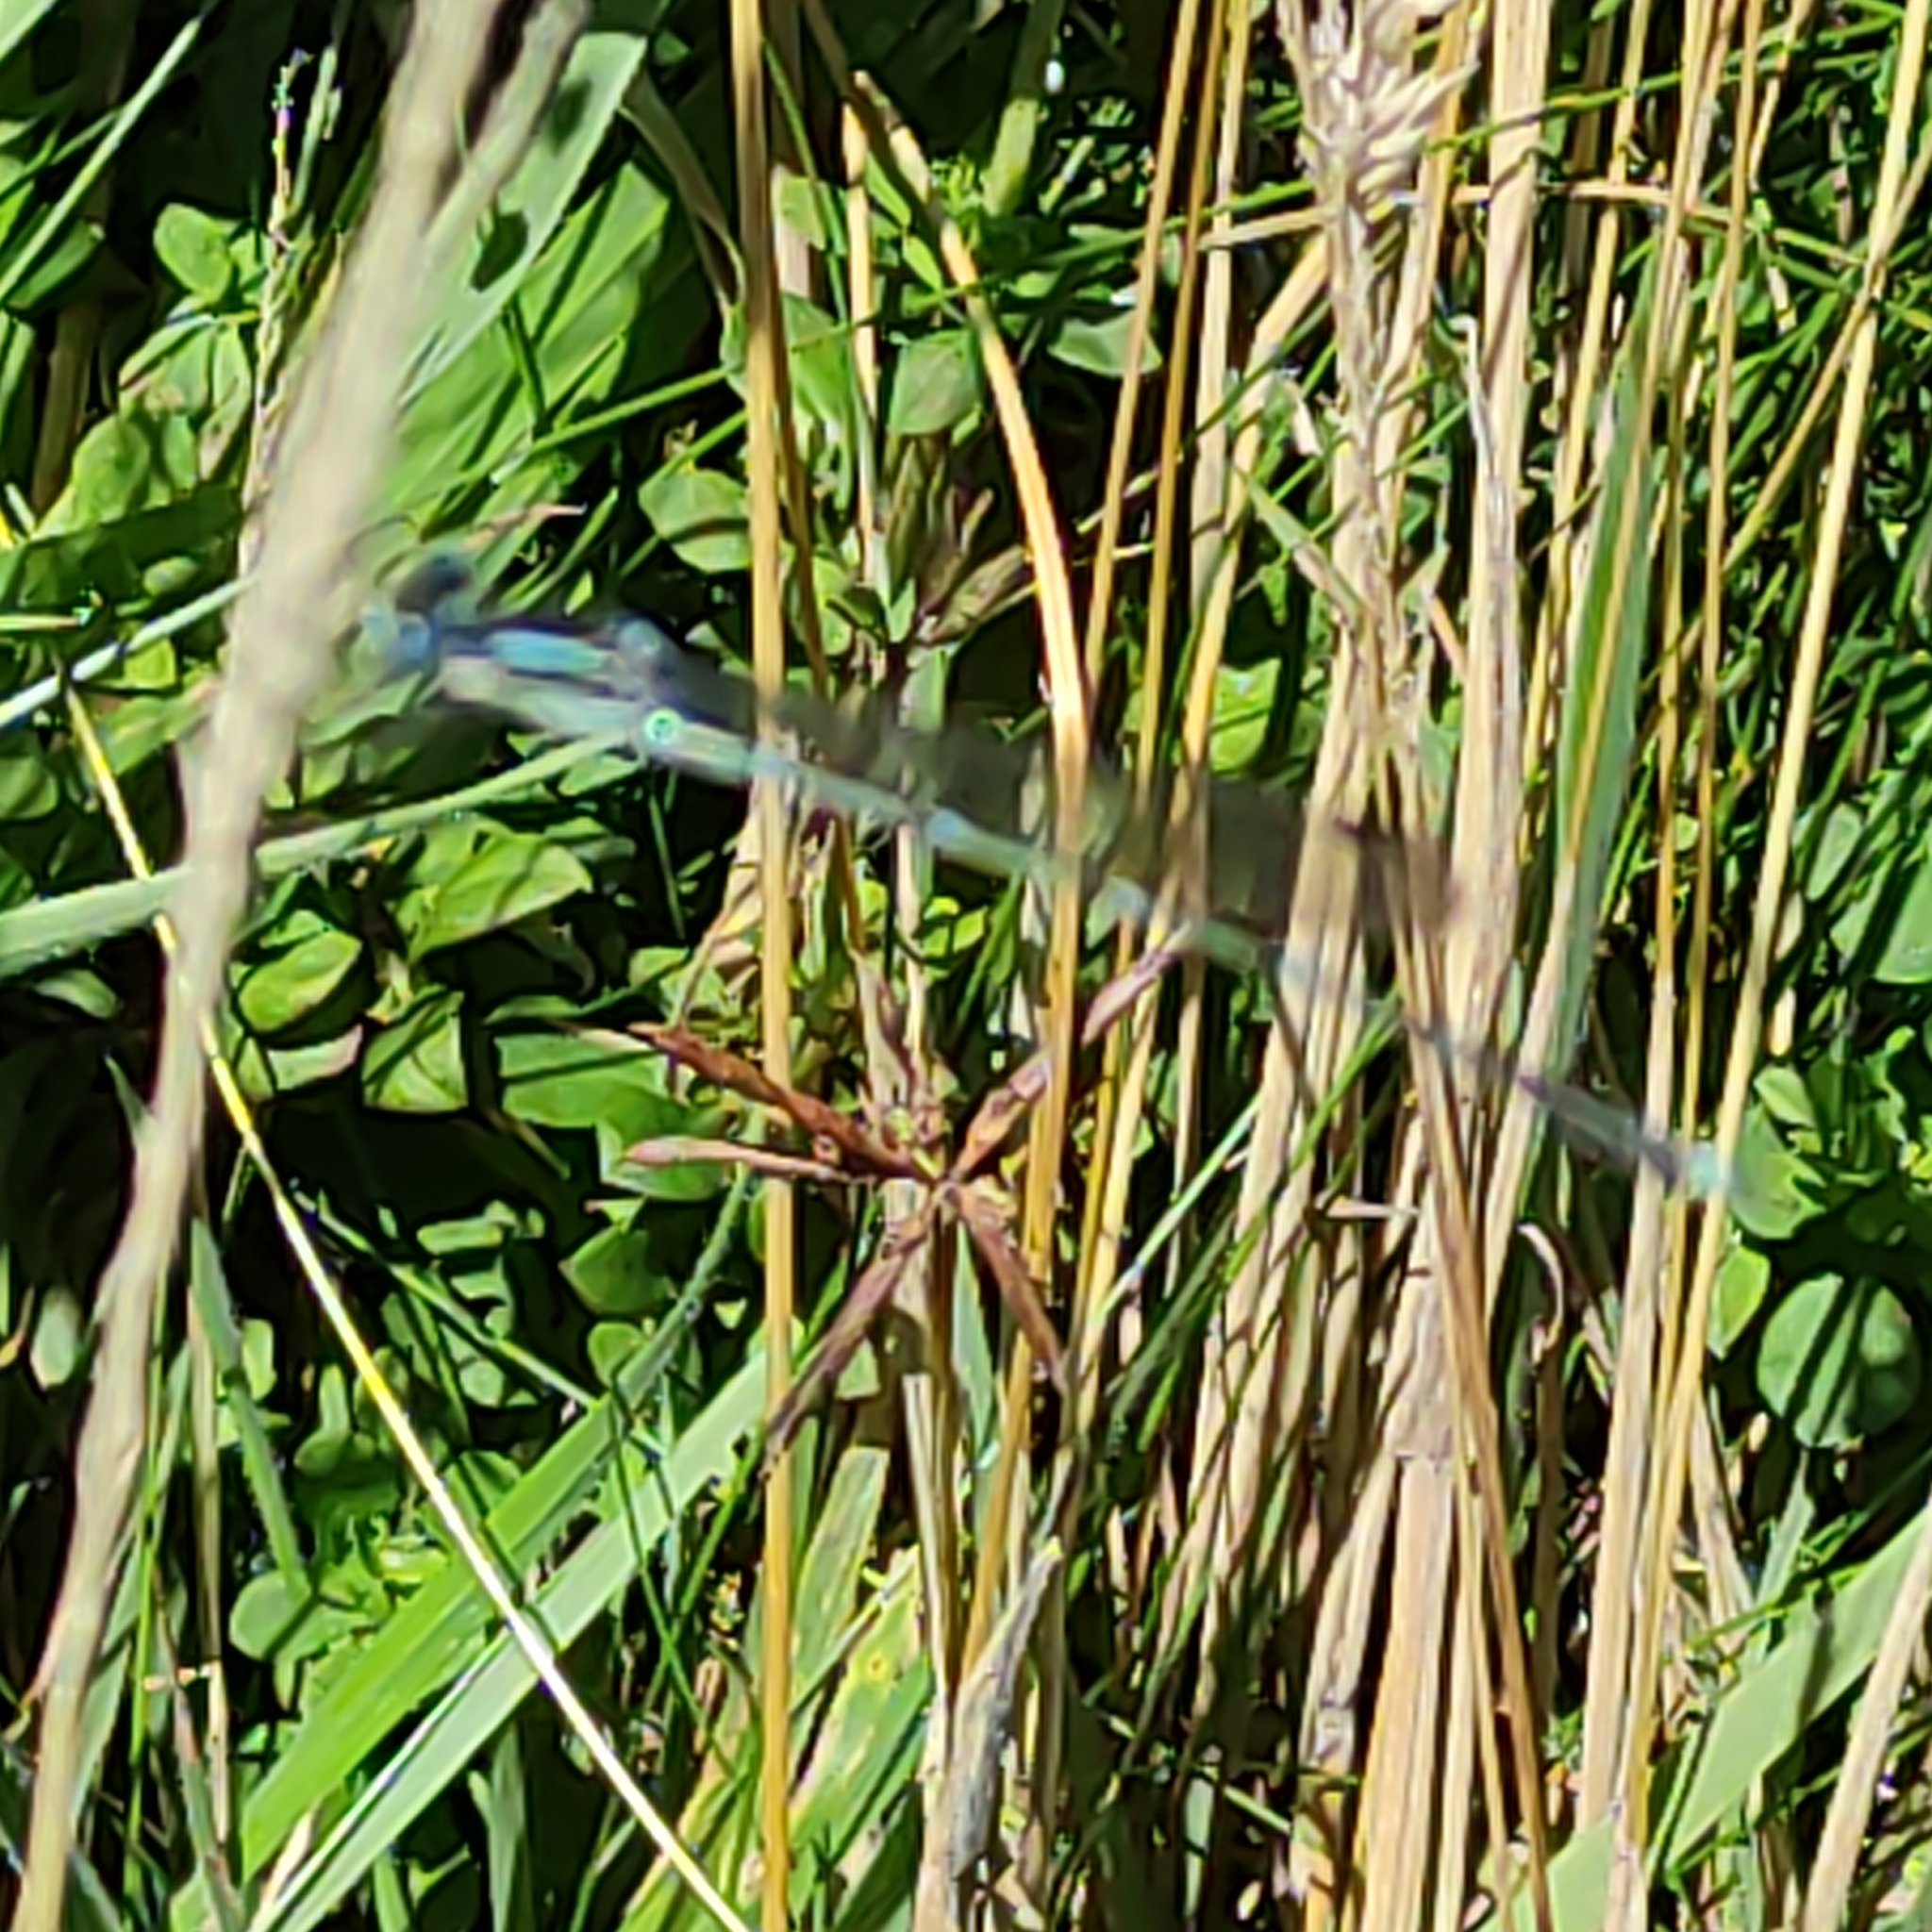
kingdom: Animalia
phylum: Arthropoda
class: Insecta
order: Odonata
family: Lestidae
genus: Austrolestes
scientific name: Austrolestes colensonis
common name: Blue damselfly
